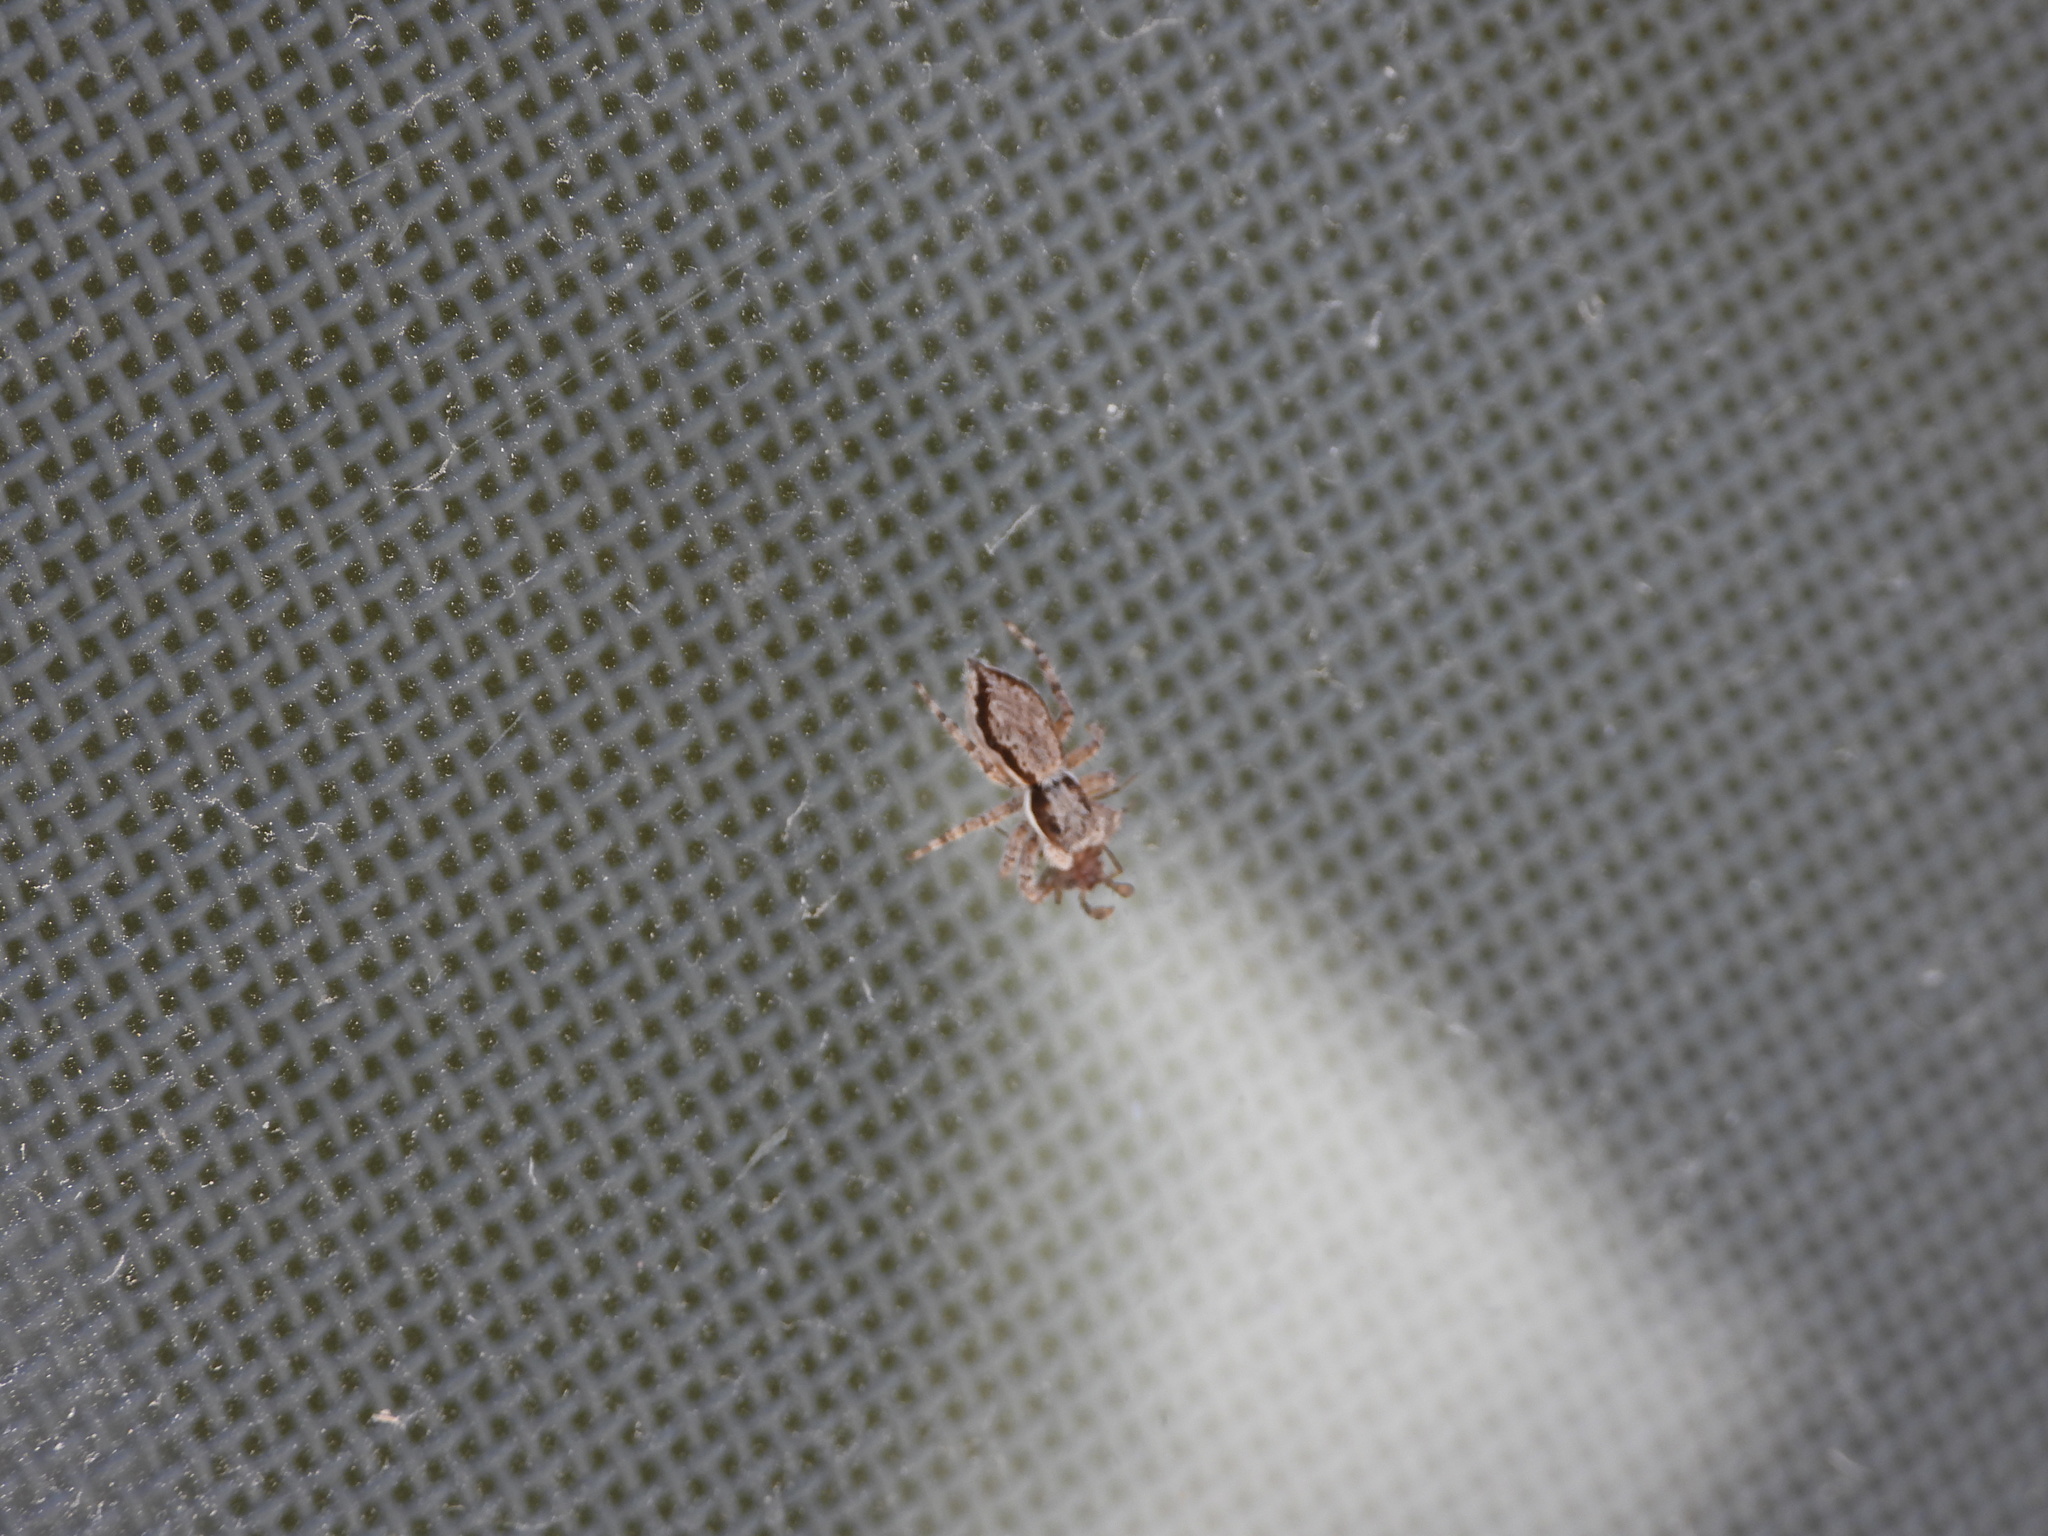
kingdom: Animalia
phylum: Arthropoda
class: Arachnida
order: Araneae
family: Salticidae
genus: Menemerus
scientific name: Menemerus bivittatus
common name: Gray wall jumper
